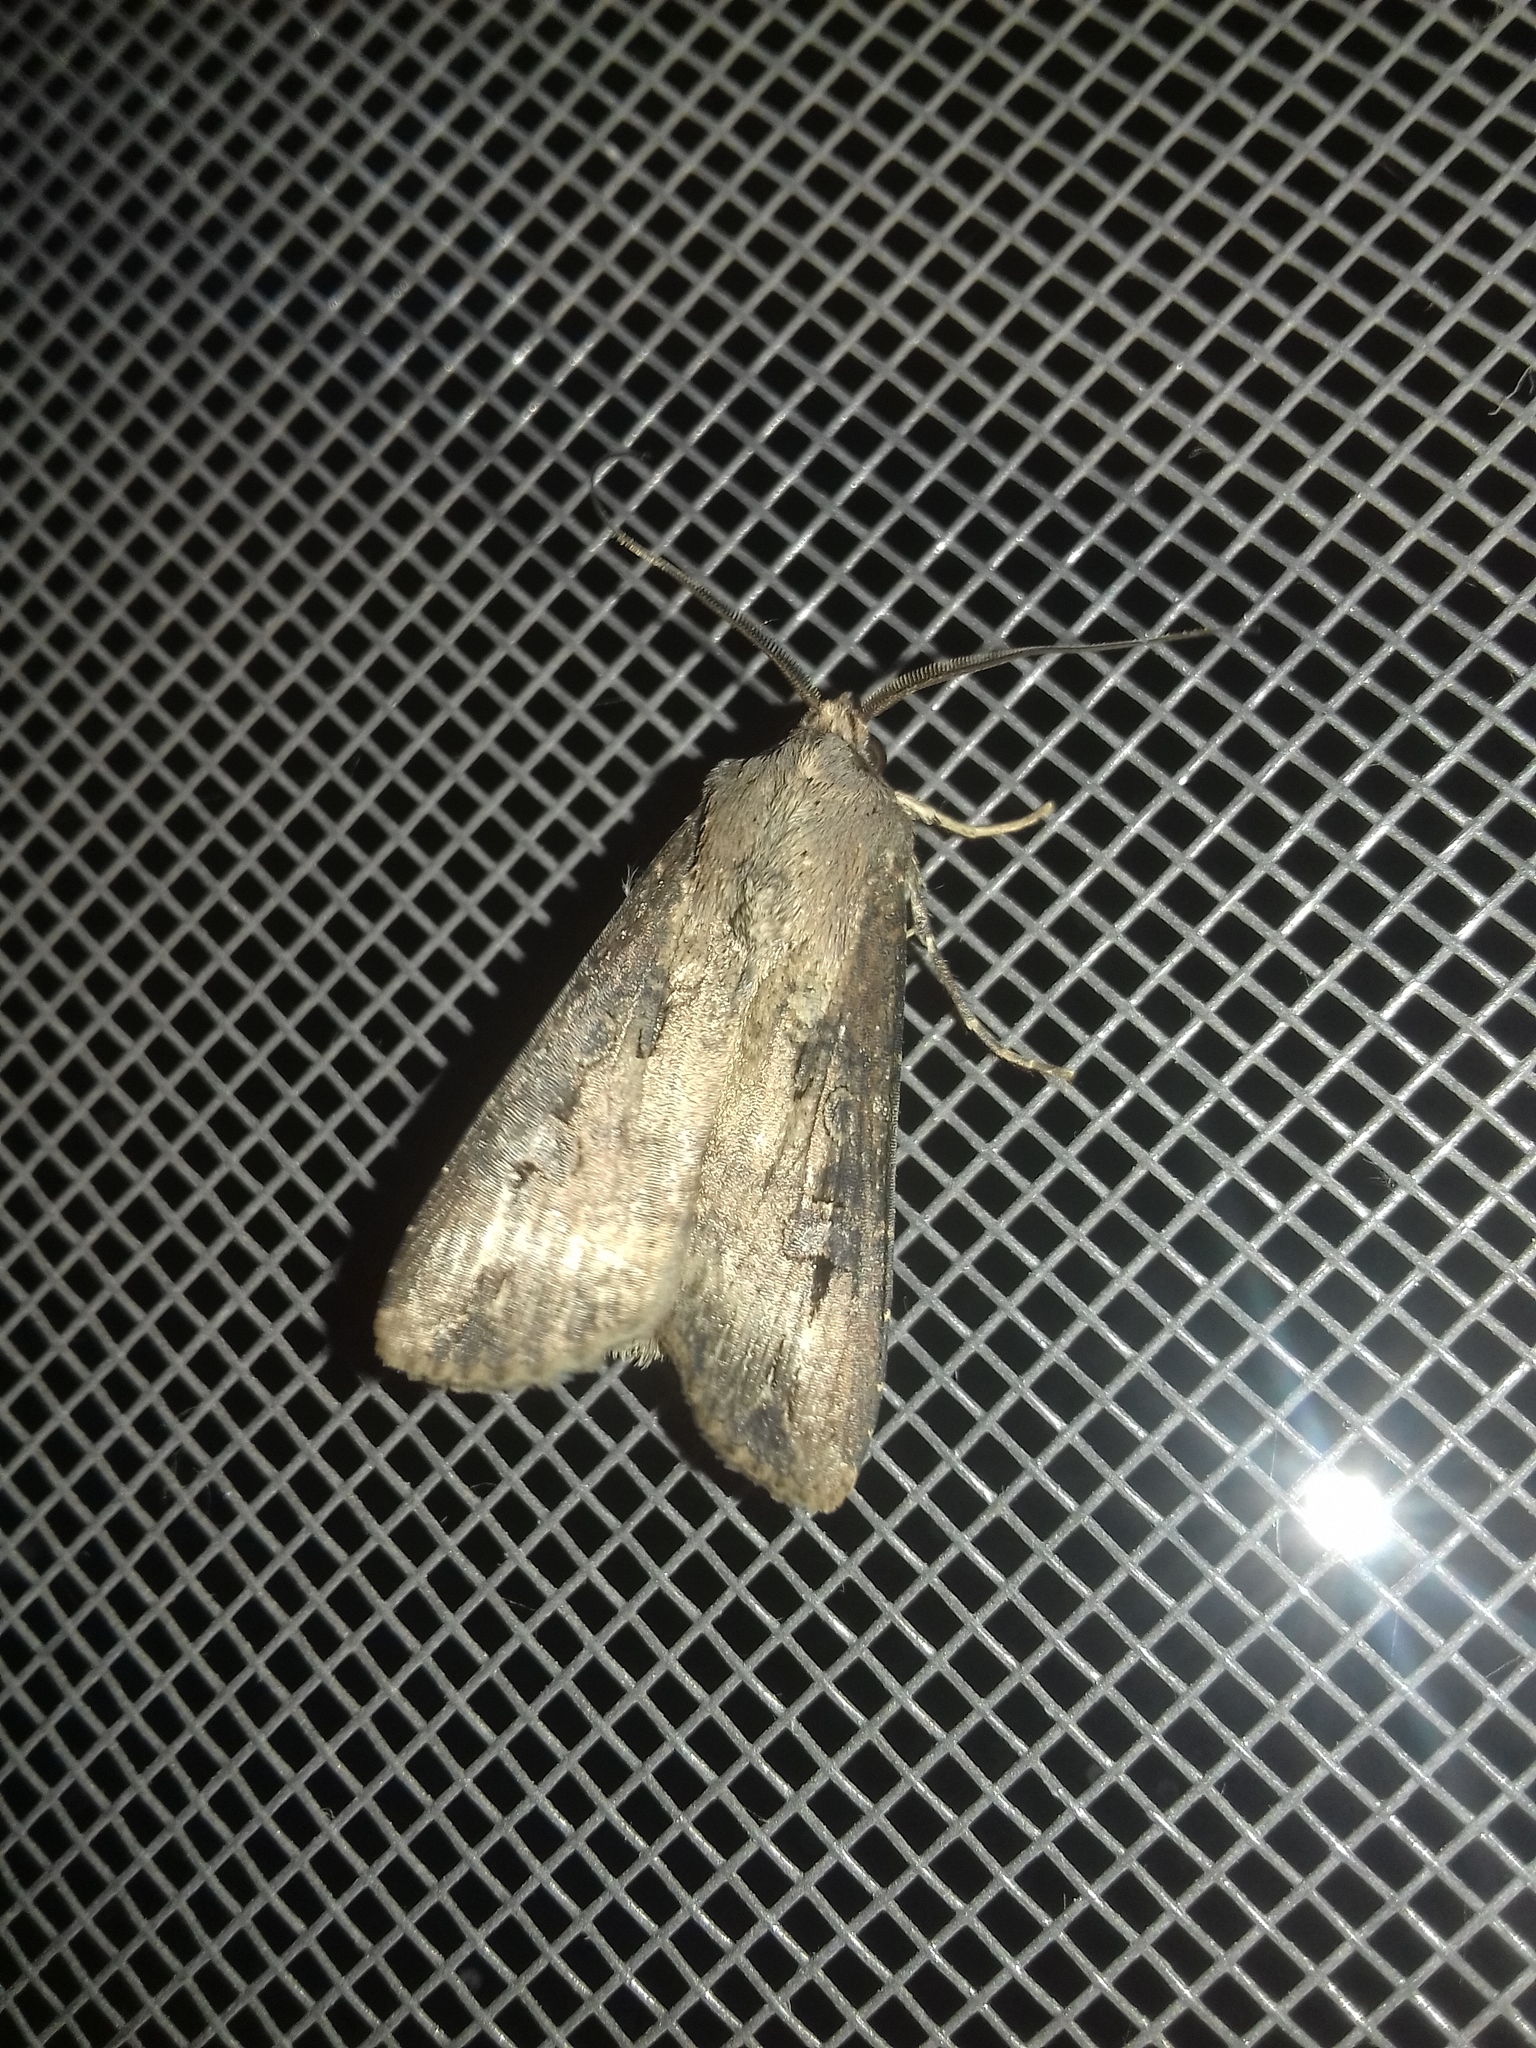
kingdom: Animalia
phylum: Arthropoda
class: Insecta
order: Lepidoptera
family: Noctuidae
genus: Agrotis
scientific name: Agrotis ipsilon
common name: Dark sword-grass
